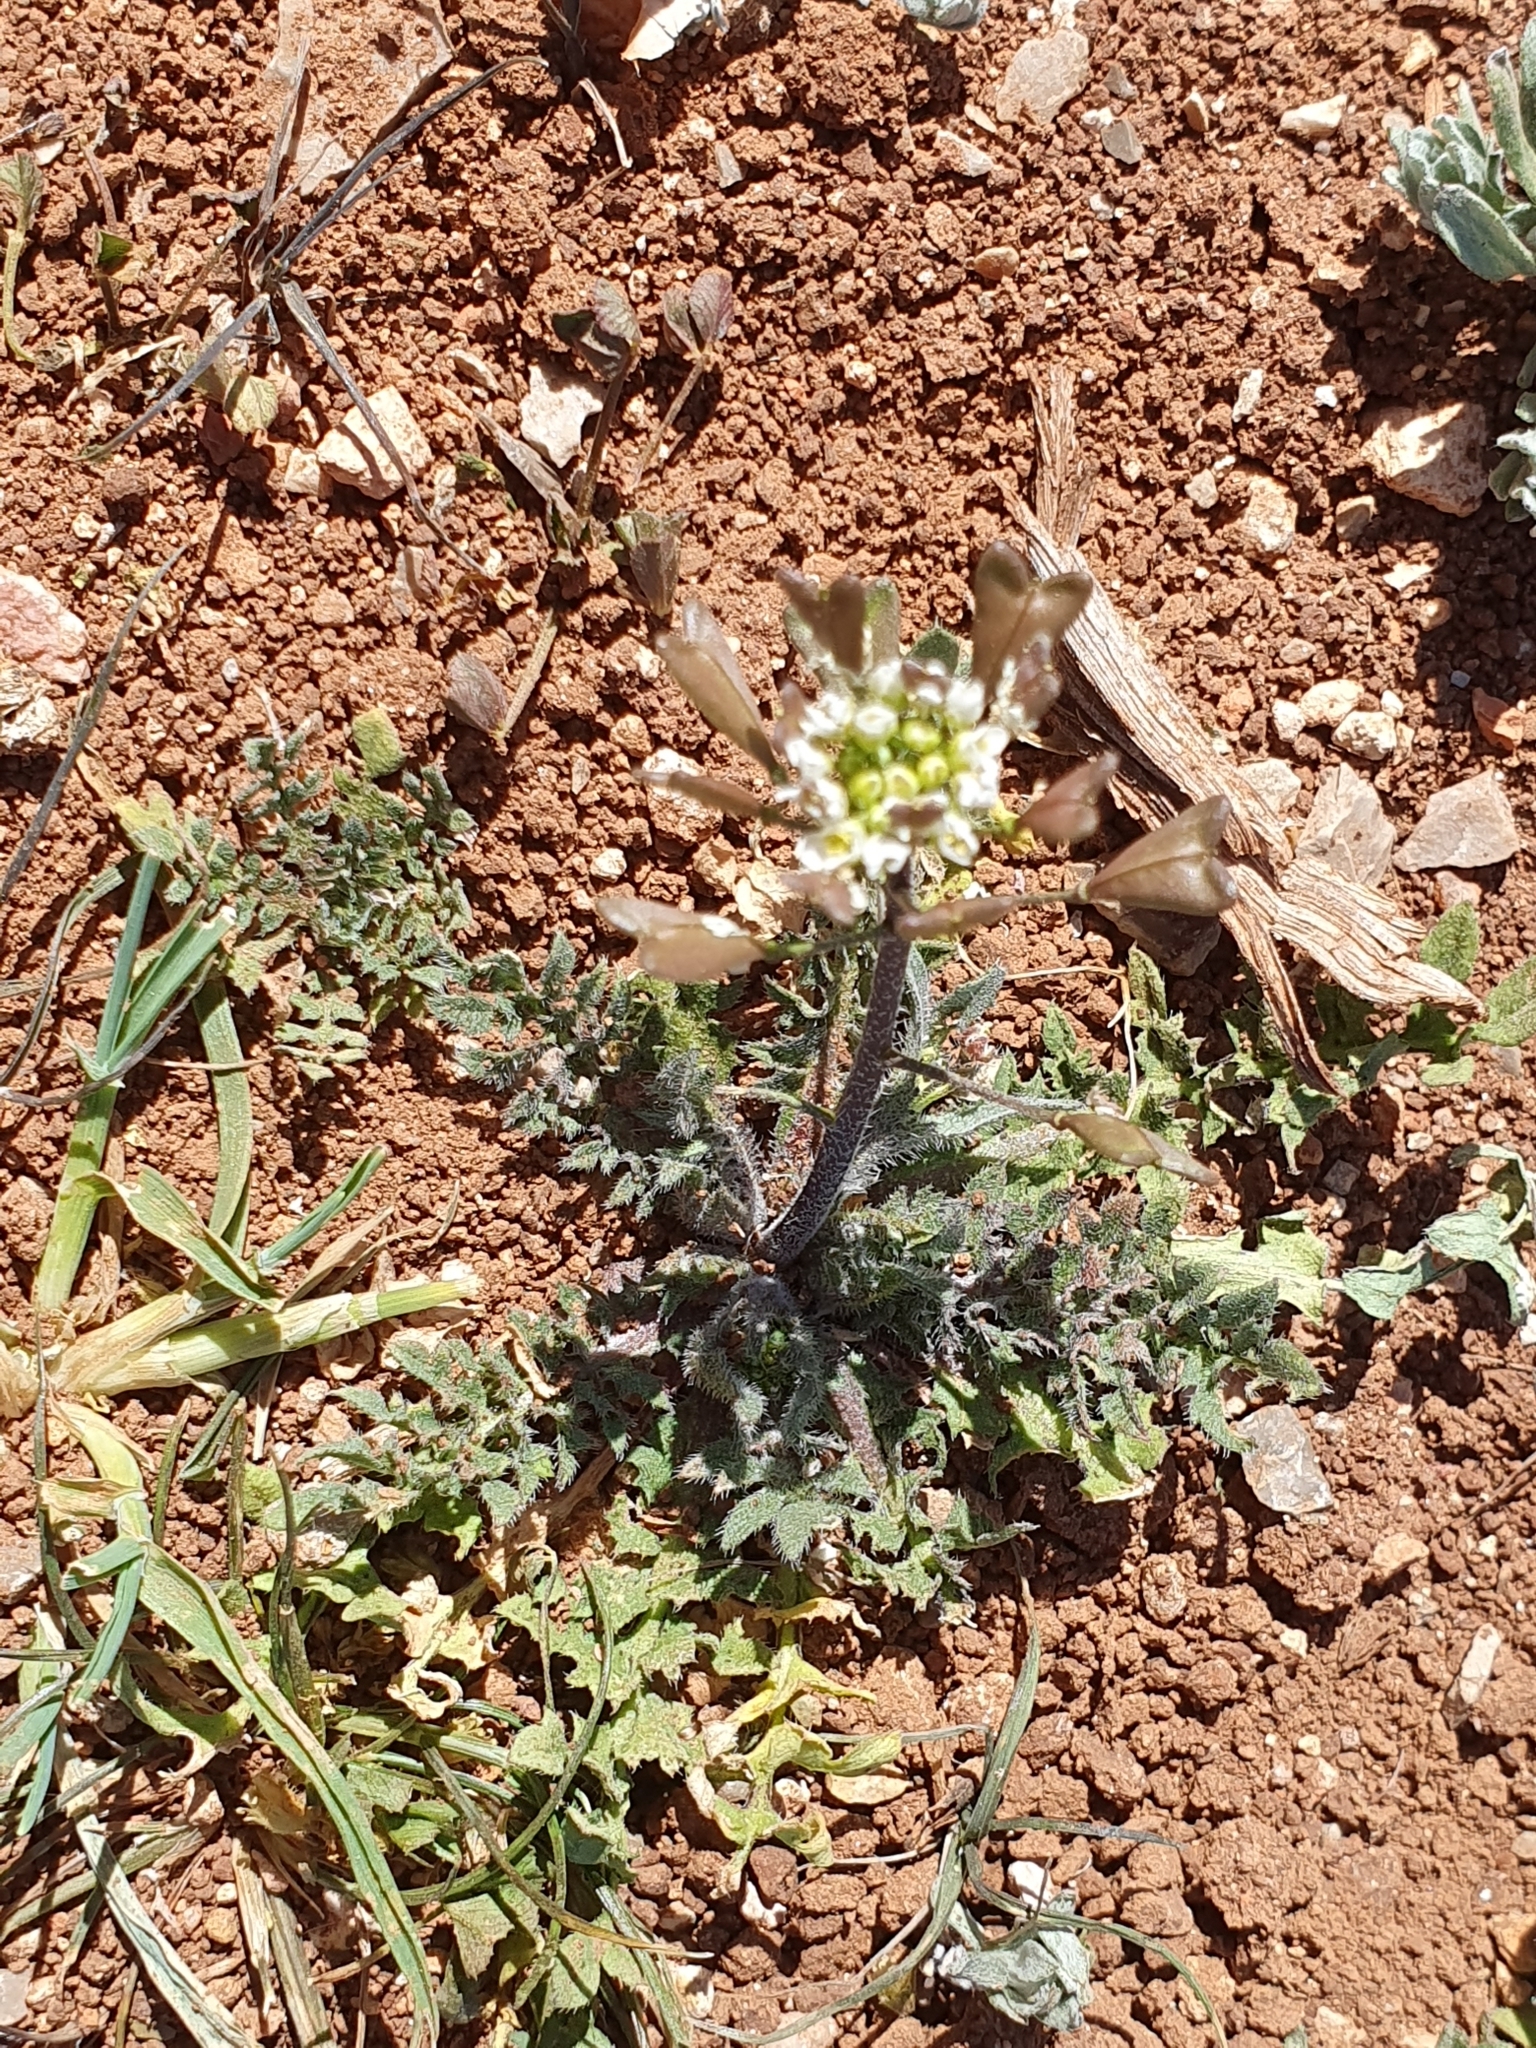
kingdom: Plantae
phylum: Tracheophyta
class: Magnoliopsida
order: Brassicales
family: Brassicaceae
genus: Capsella
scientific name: Capsella bursa-pastoris
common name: Shepherd's purse
